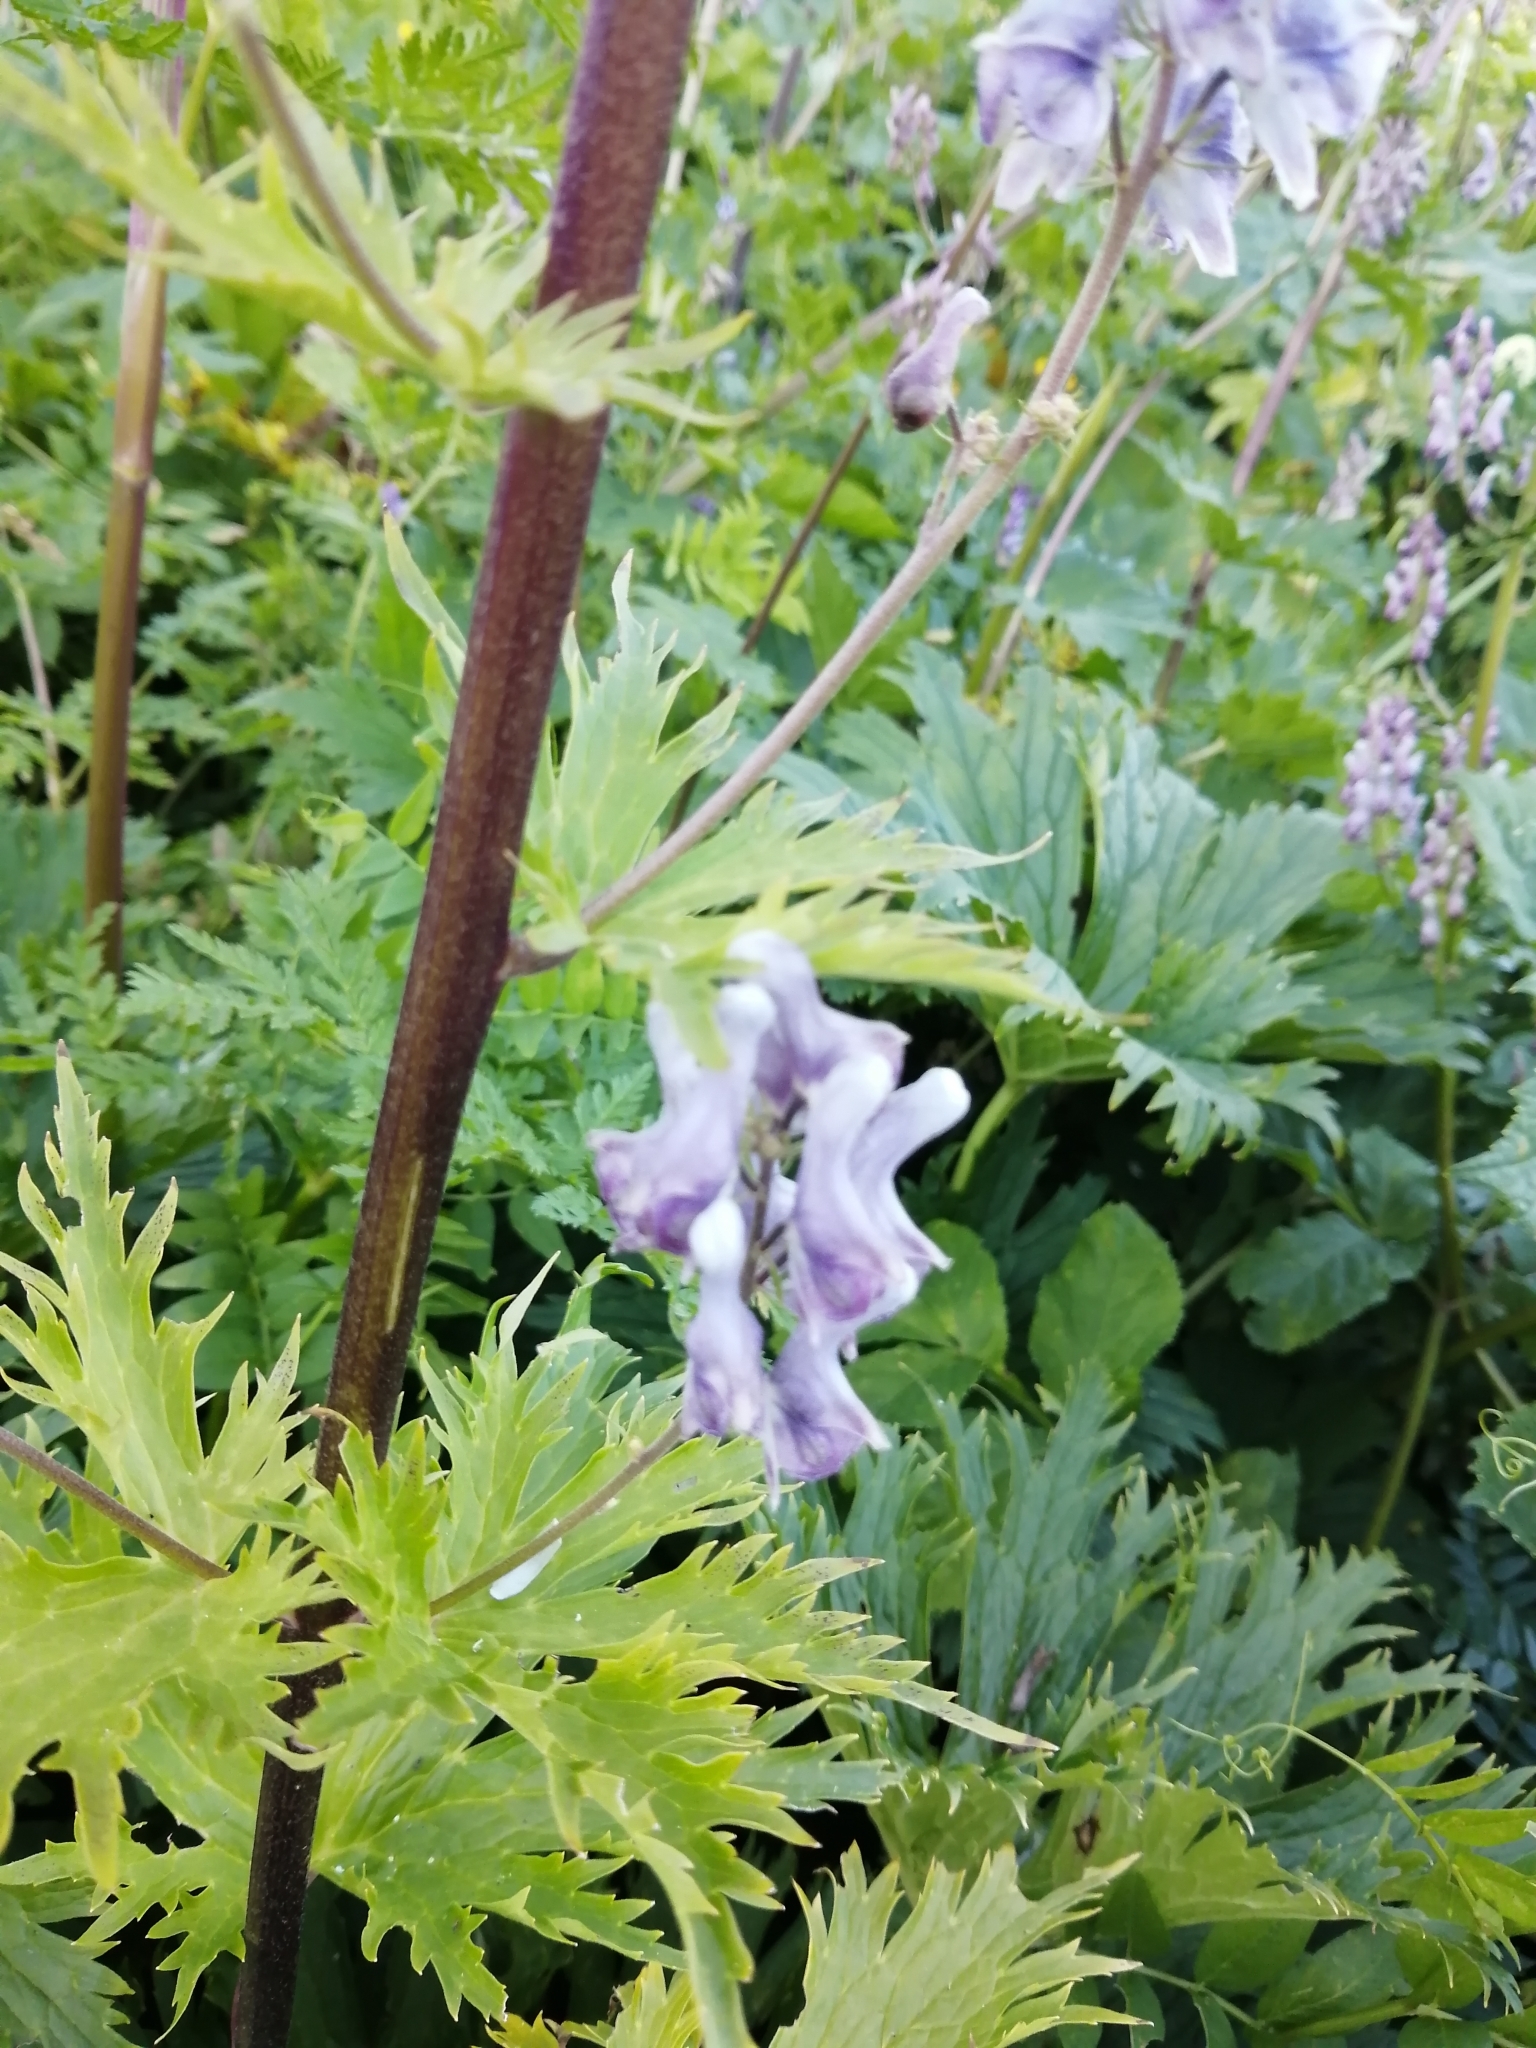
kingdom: Plantae
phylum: Tracheophyta
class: Magnoliopsida
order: Ranunculales
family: Ranunculaceae
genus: Aconitum
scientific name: Aconitum orientale
